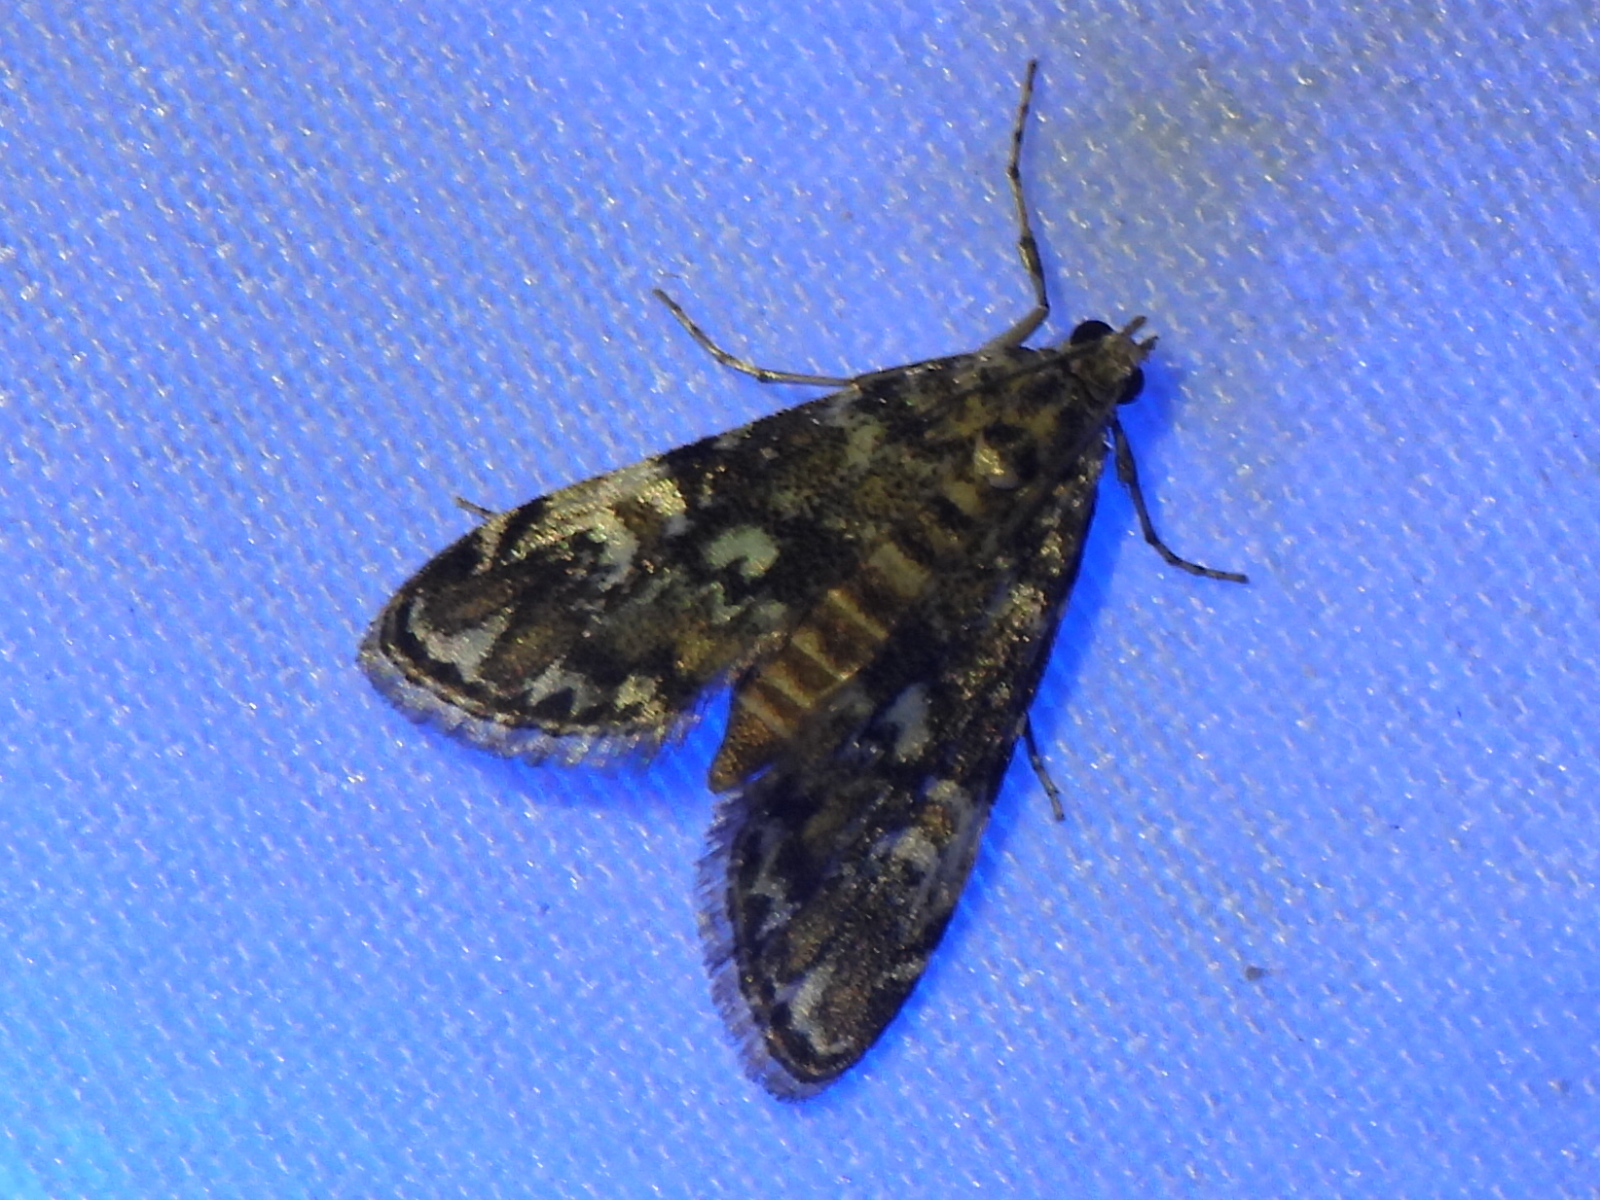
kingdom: Animalia
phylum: Arthropoda
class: Insecta
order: Lepidoptera
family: Crambidae
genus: Elophila
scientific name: Elophila obliteralis
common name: Waterlily leafcutter moth
